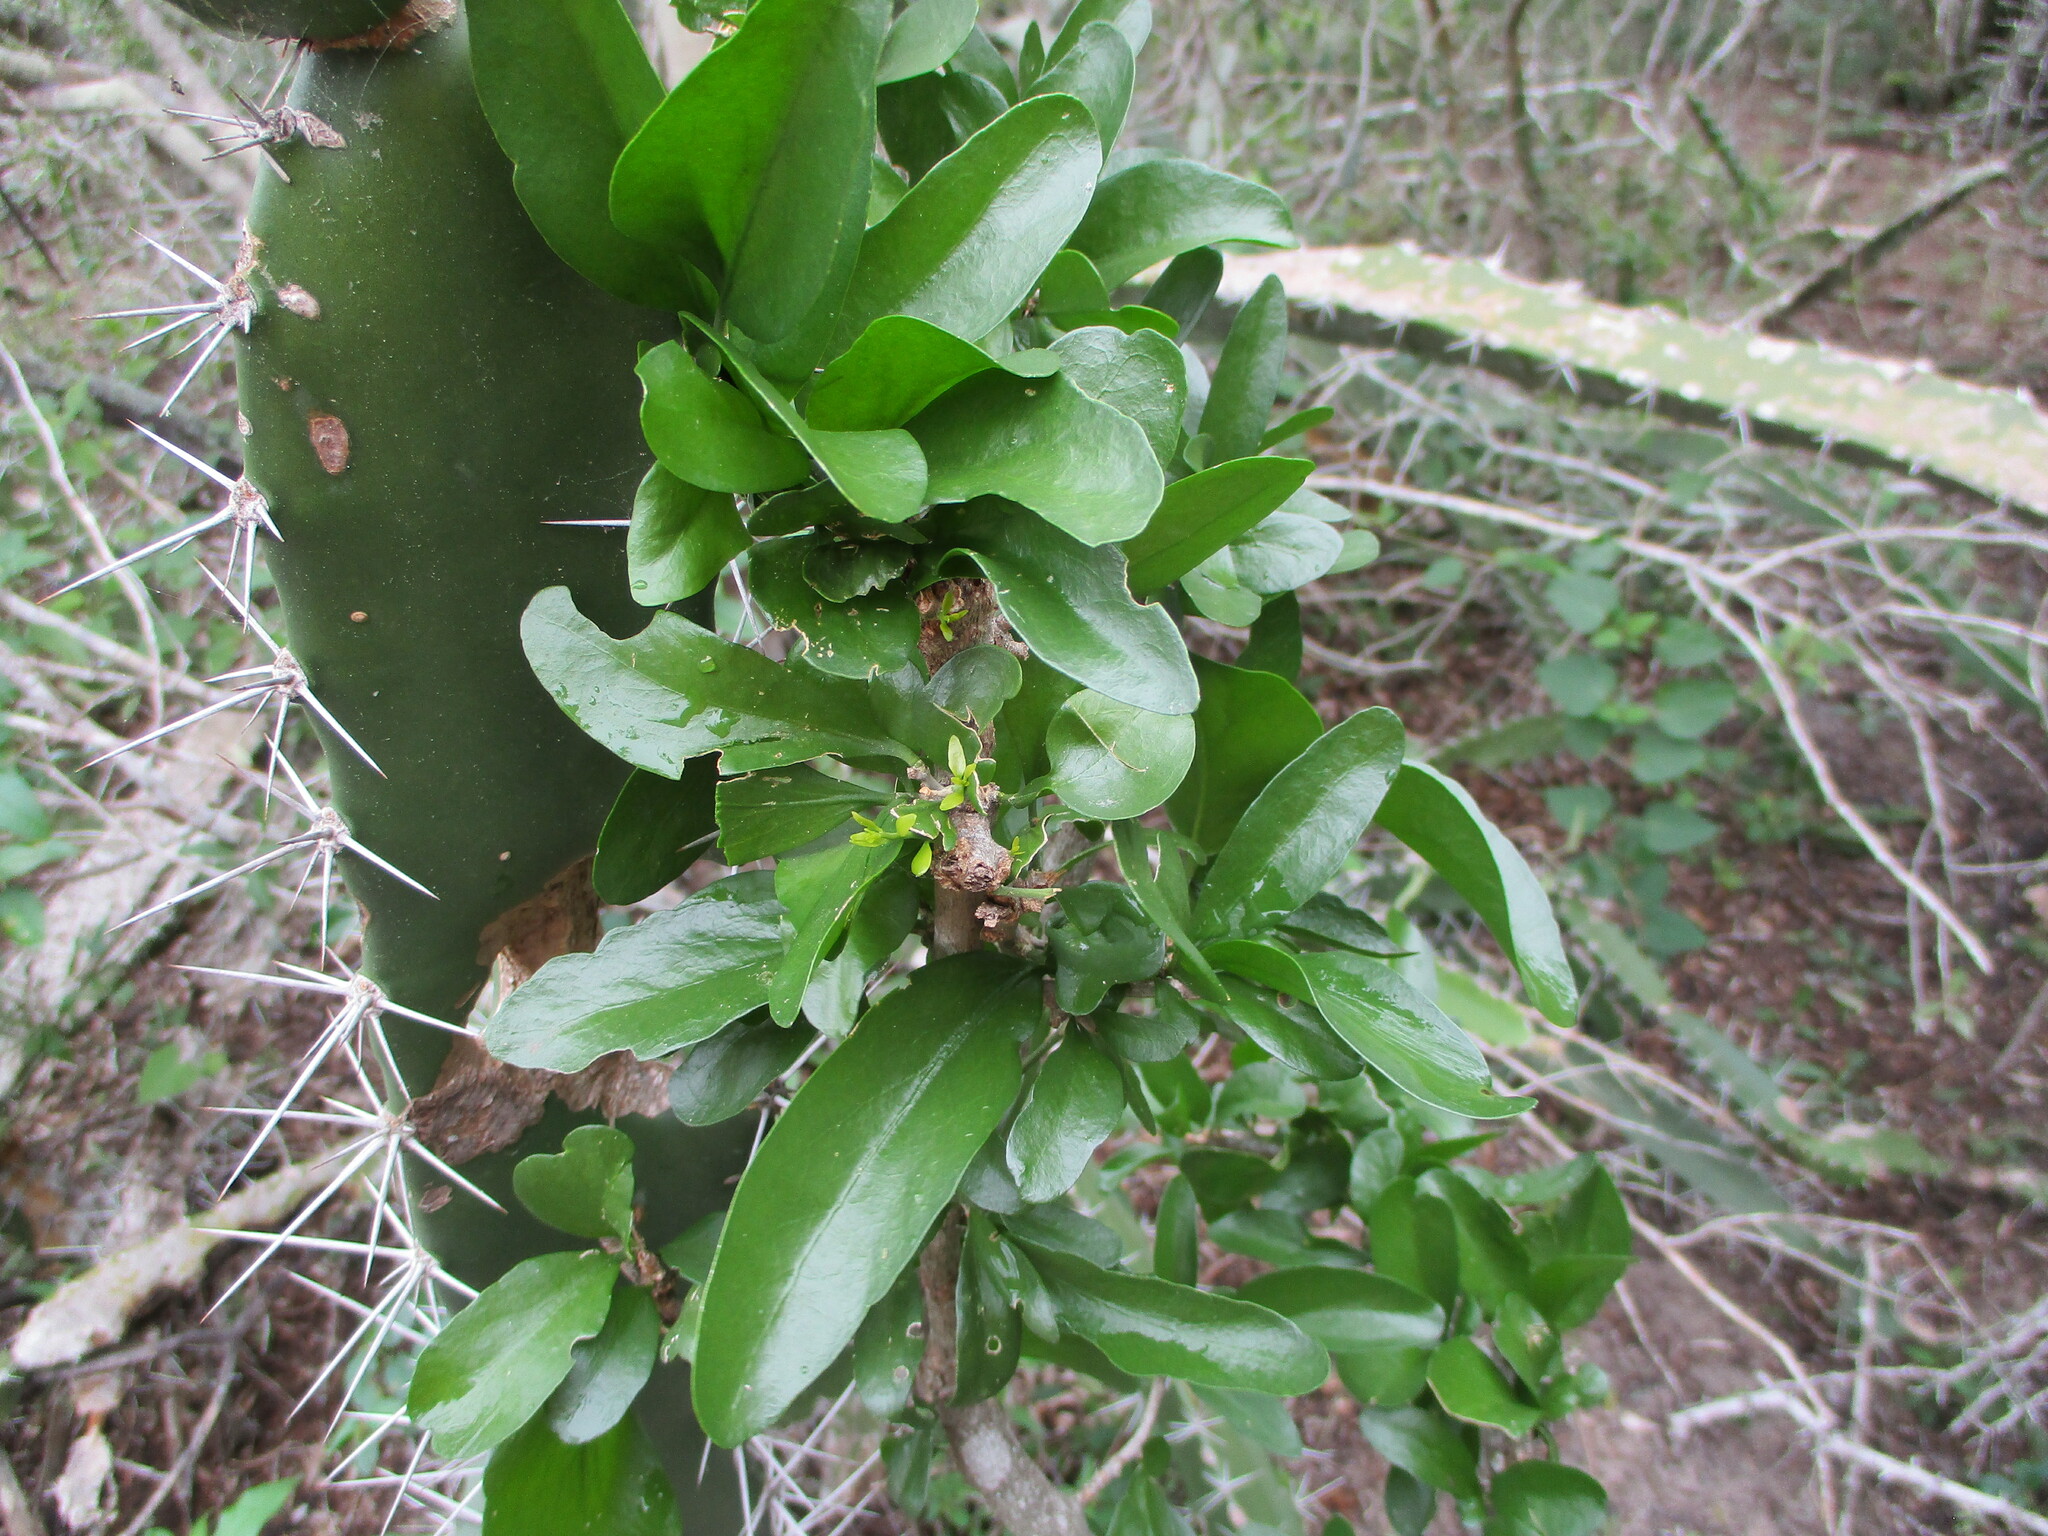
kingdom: Plantae
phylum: Tracheophyta
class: Magnoliopsida
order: Malpighiales
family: Euphorbiaceae
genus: Adelia
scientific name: Adelia vaseyi
